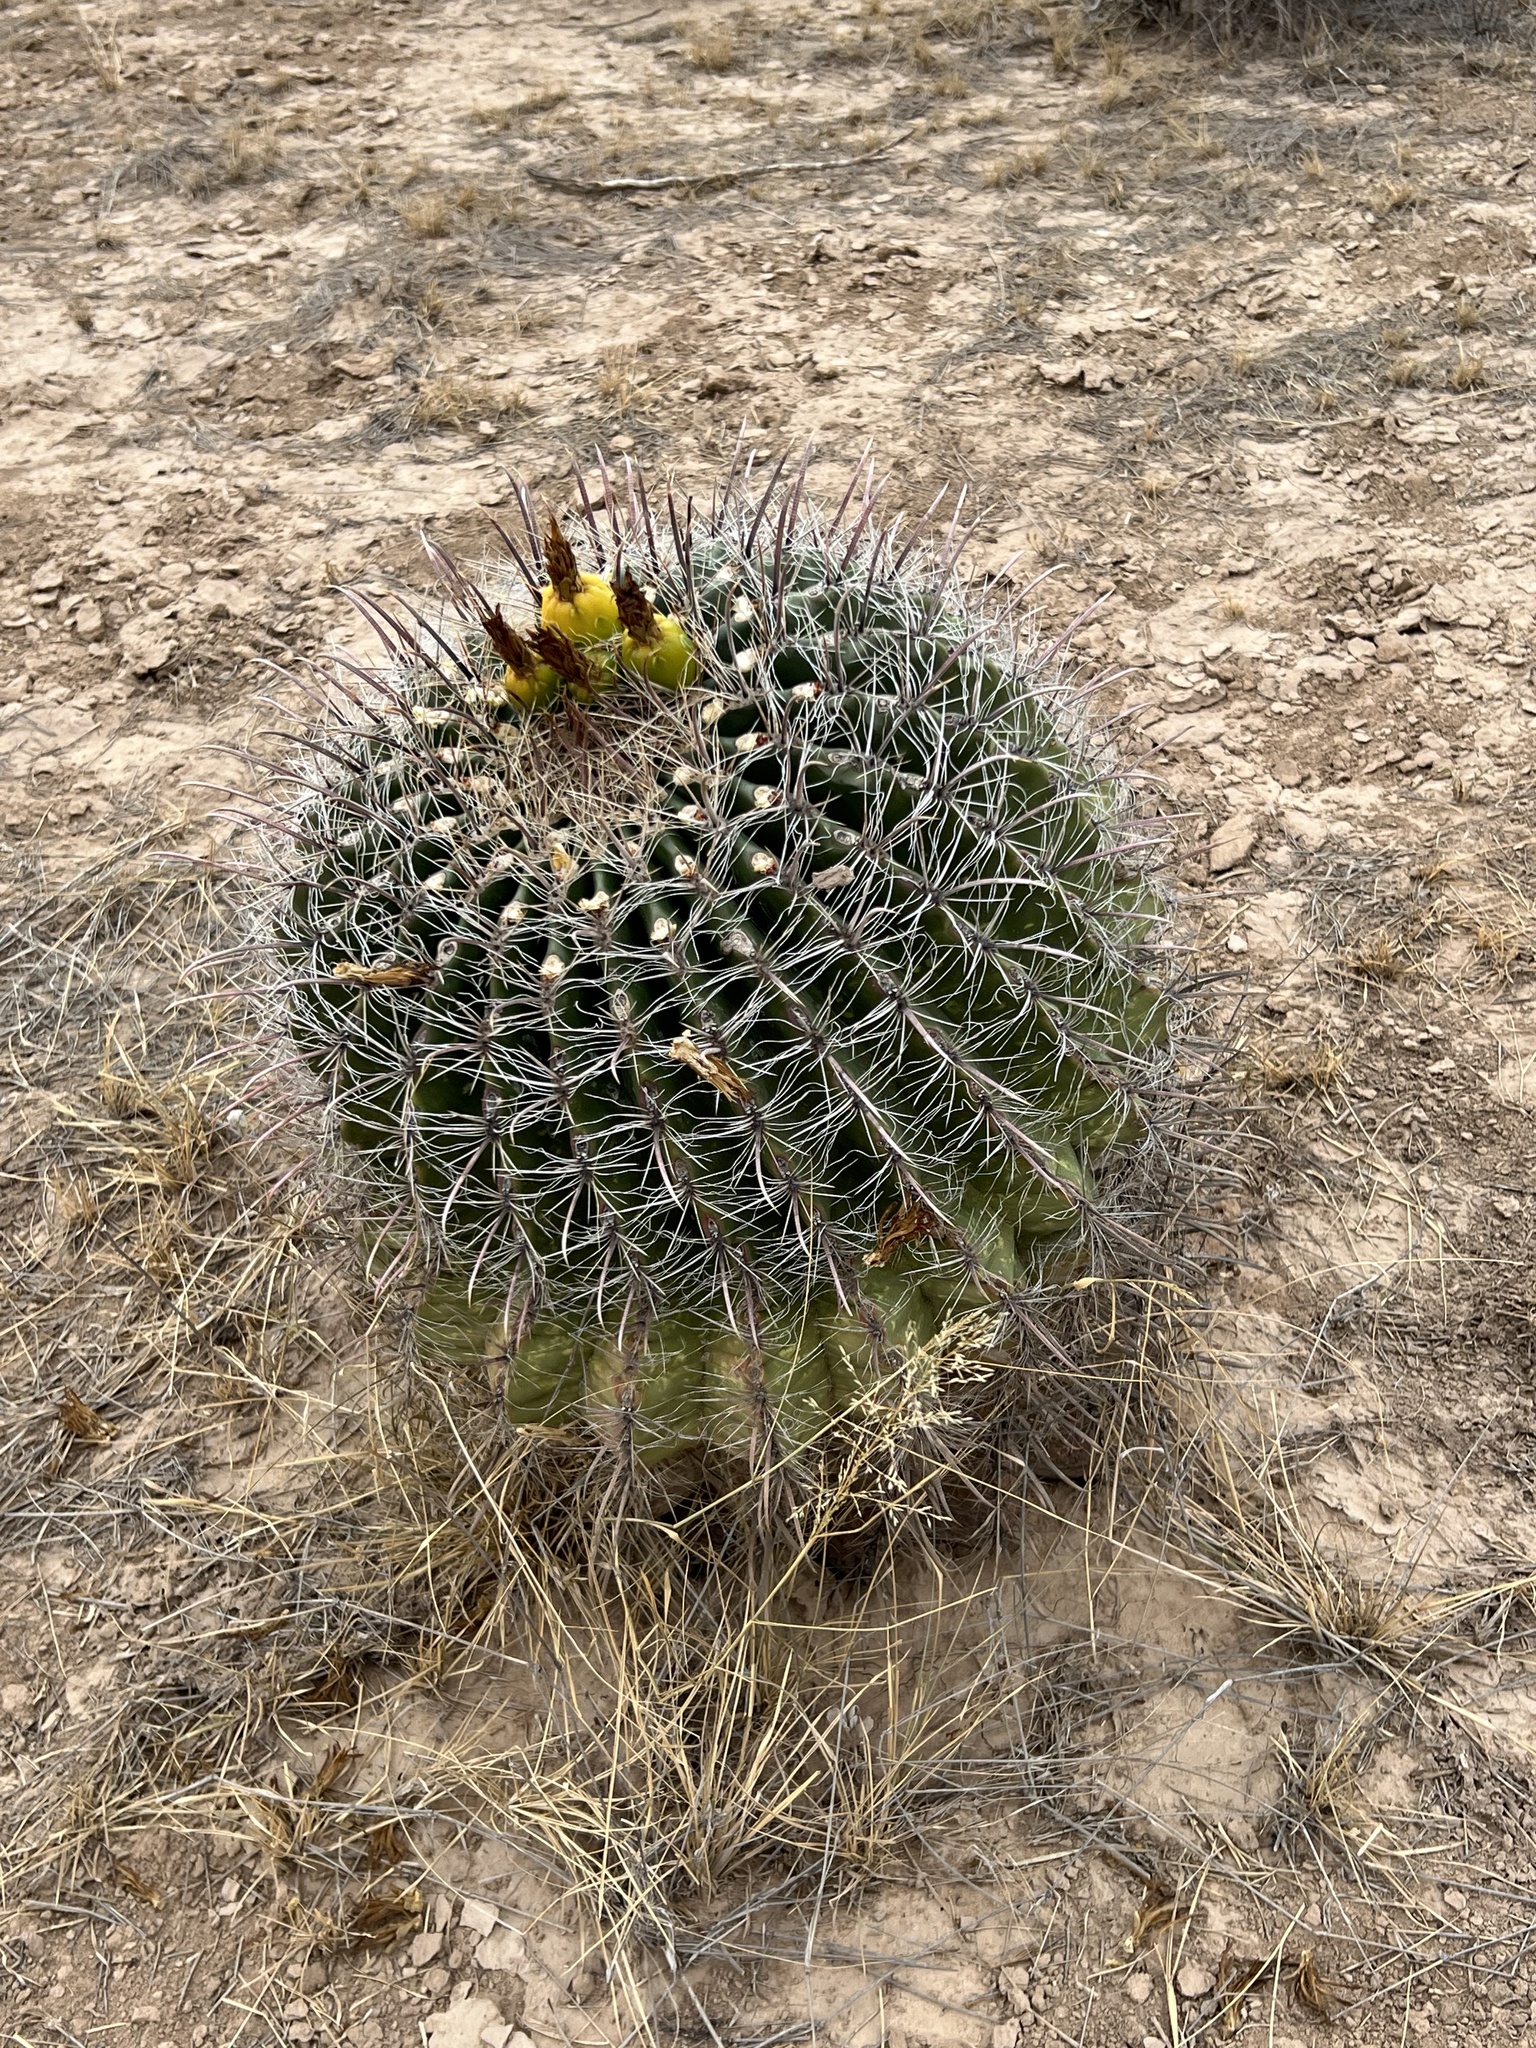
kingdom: Plantae
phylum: Tracheophyta
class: Magnoliopsida
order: Caryophyllales
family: Cactaceae
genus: Ferocactus
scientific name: Ferocactus wislizeni
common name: Candy barrel cactus
